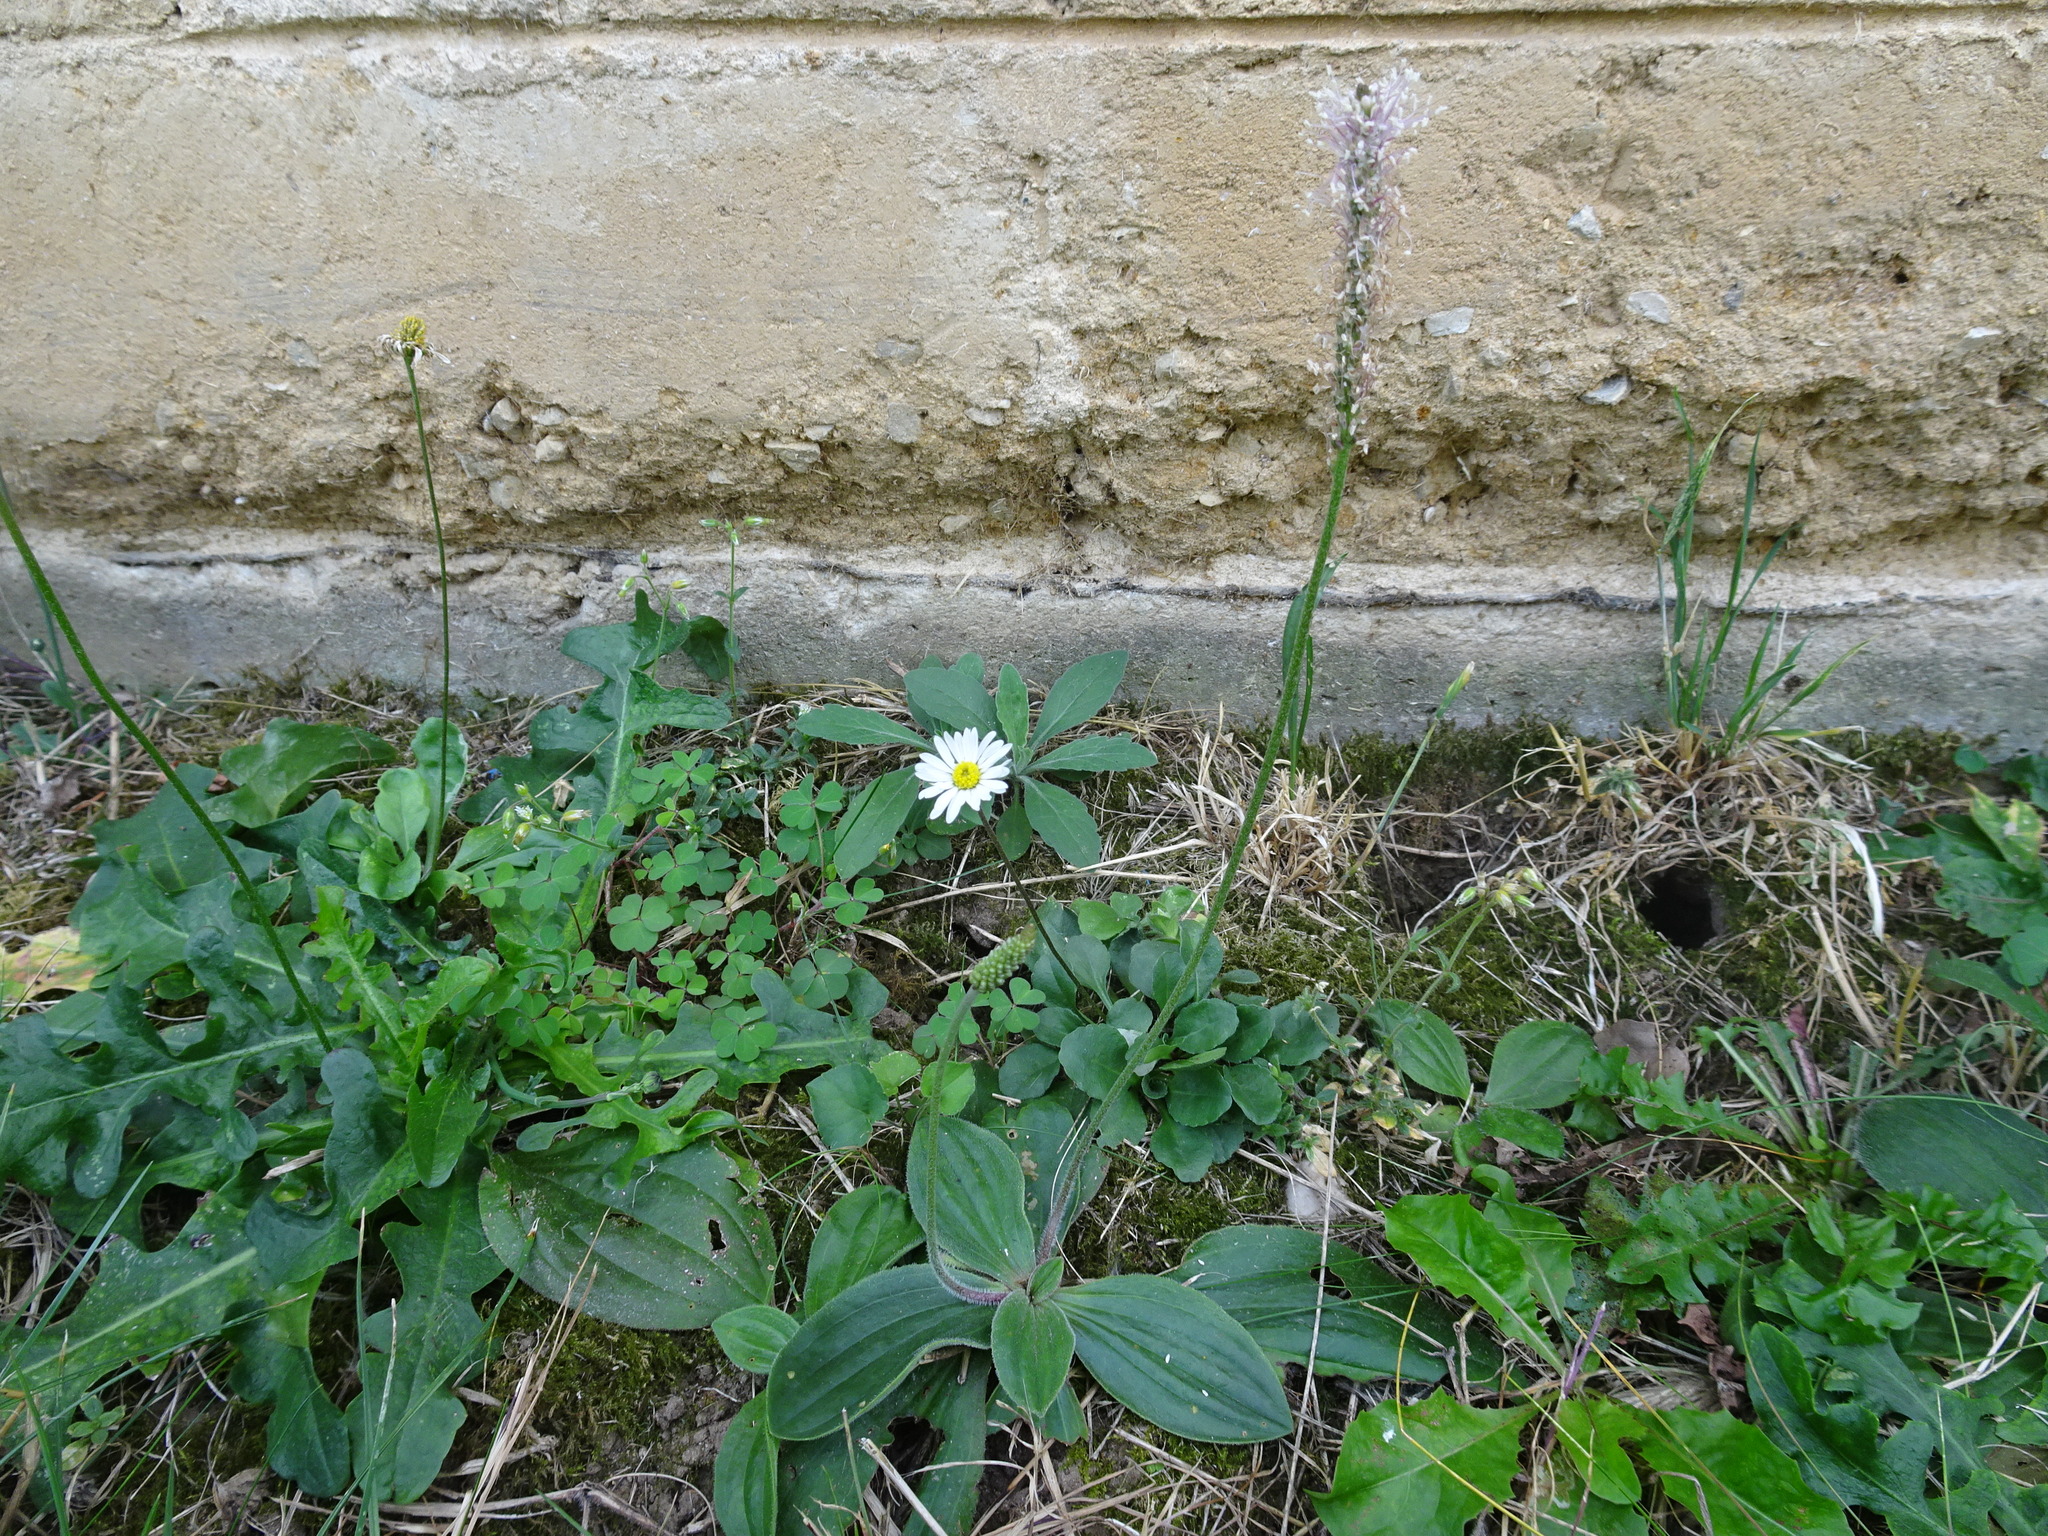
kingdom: Plantae
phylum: Tracheophyta
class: Magnoliopsida
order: Lamiales
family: Plantaginaceae
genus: Plantago
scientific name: Plantago media
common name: Hoary plantain
